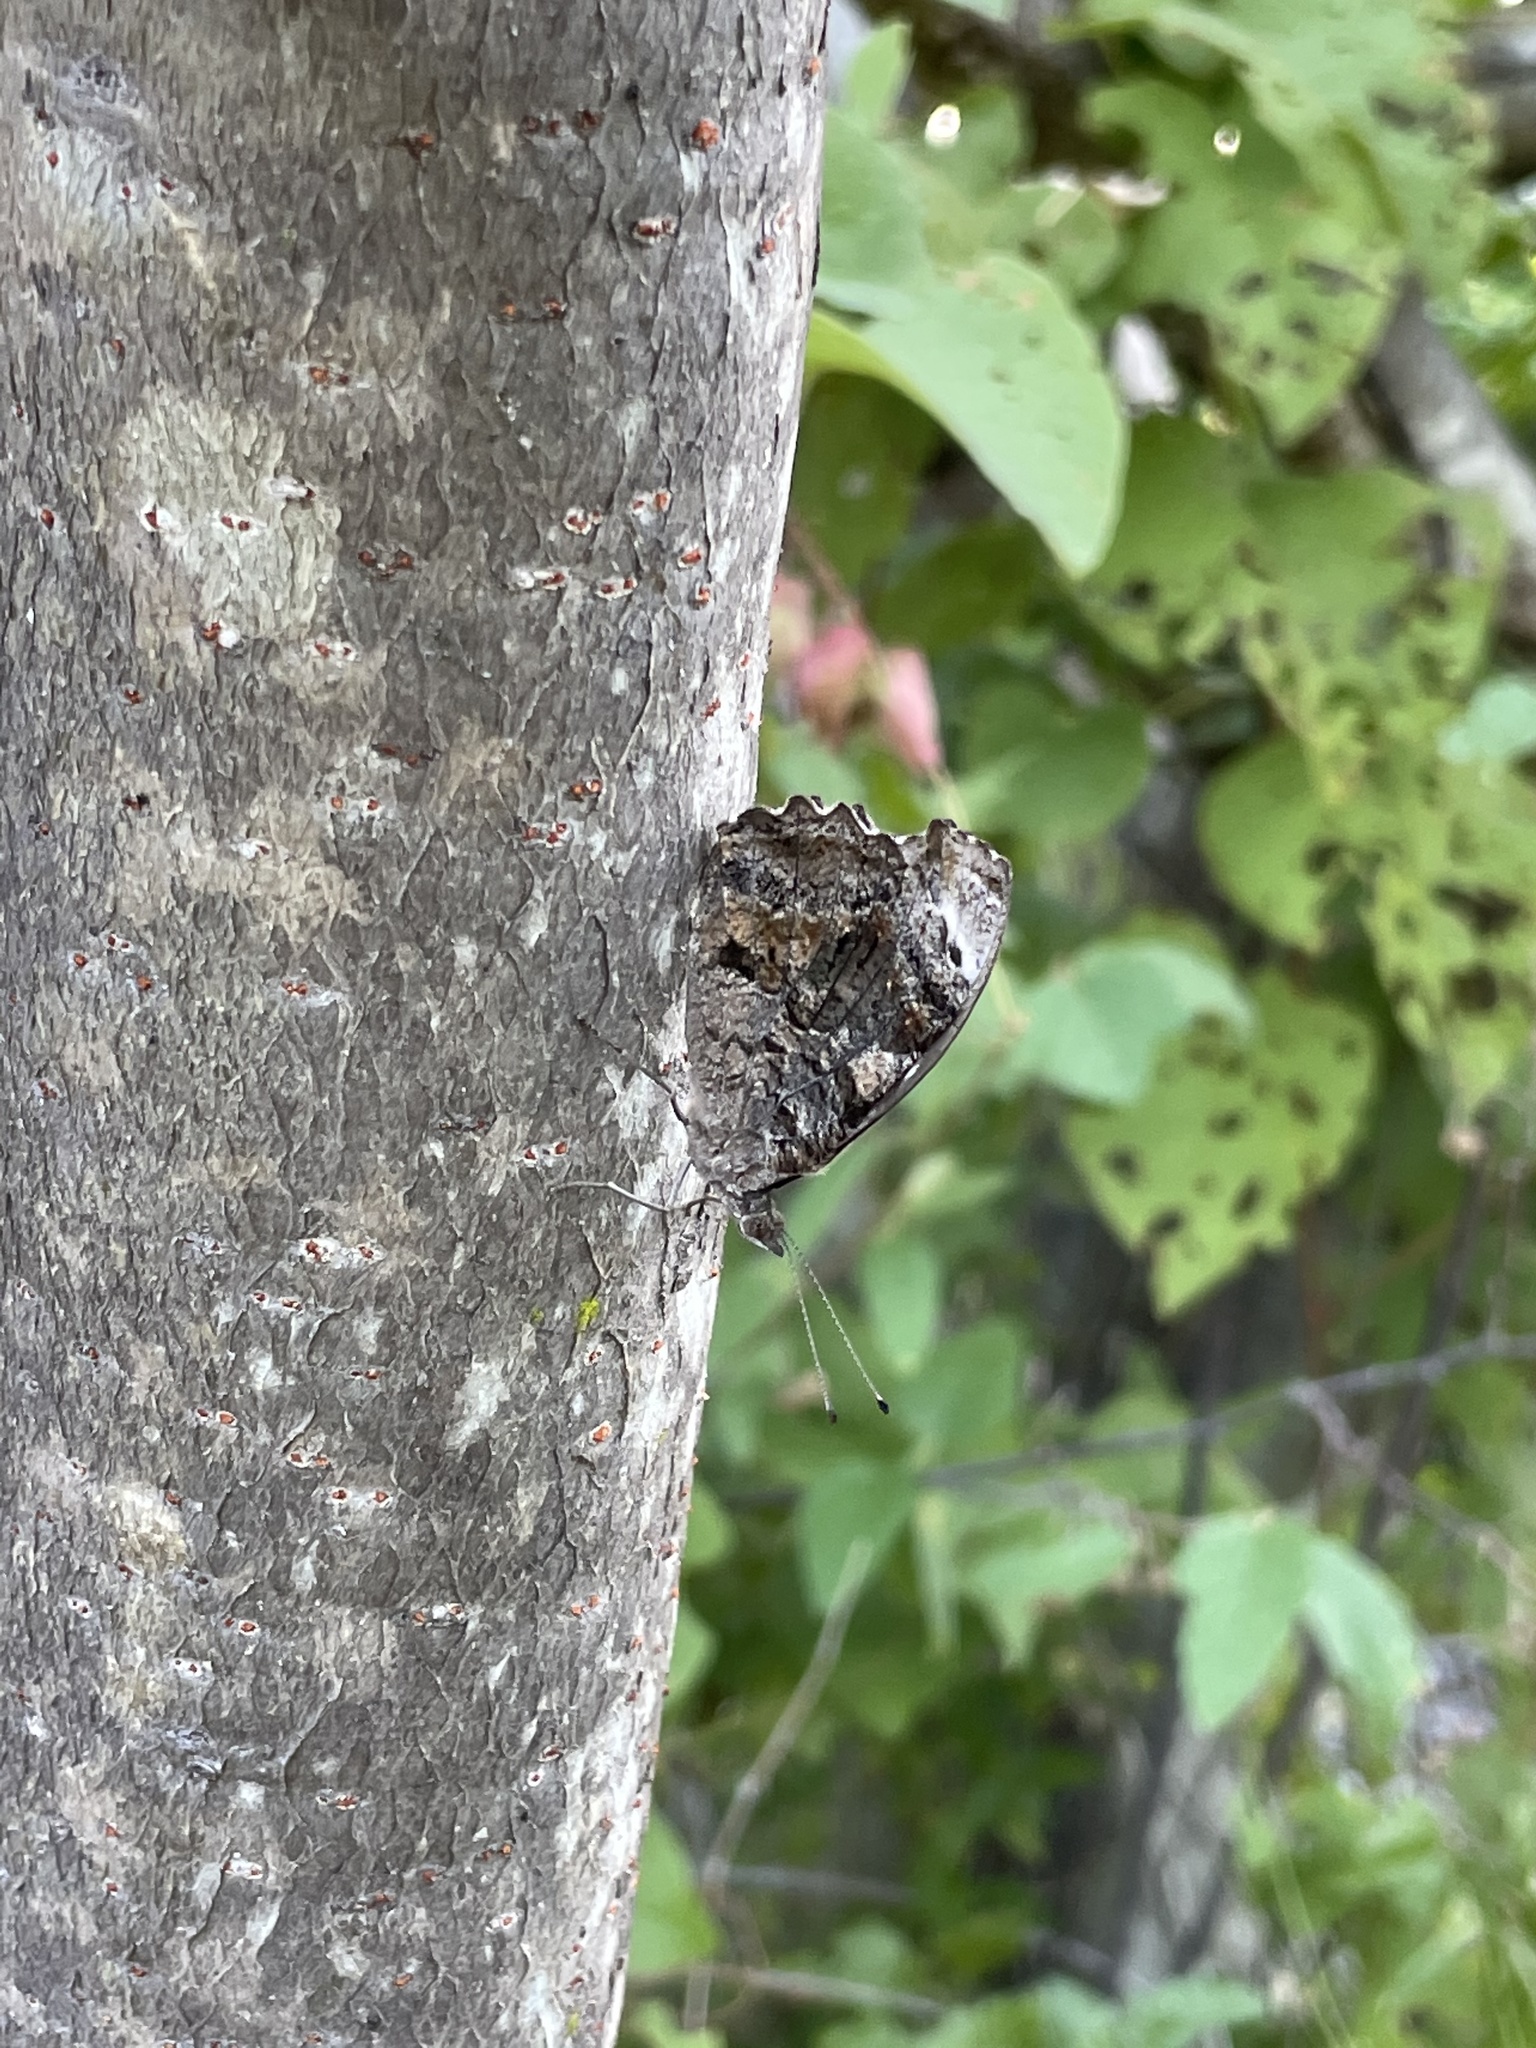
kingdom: Animalia
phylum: Arthropoda
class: Insecta
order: Lepidoptera
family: Nymphalidae
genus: Myscelia
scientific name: Myscelia cyananthe
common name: Blackened bluewing
